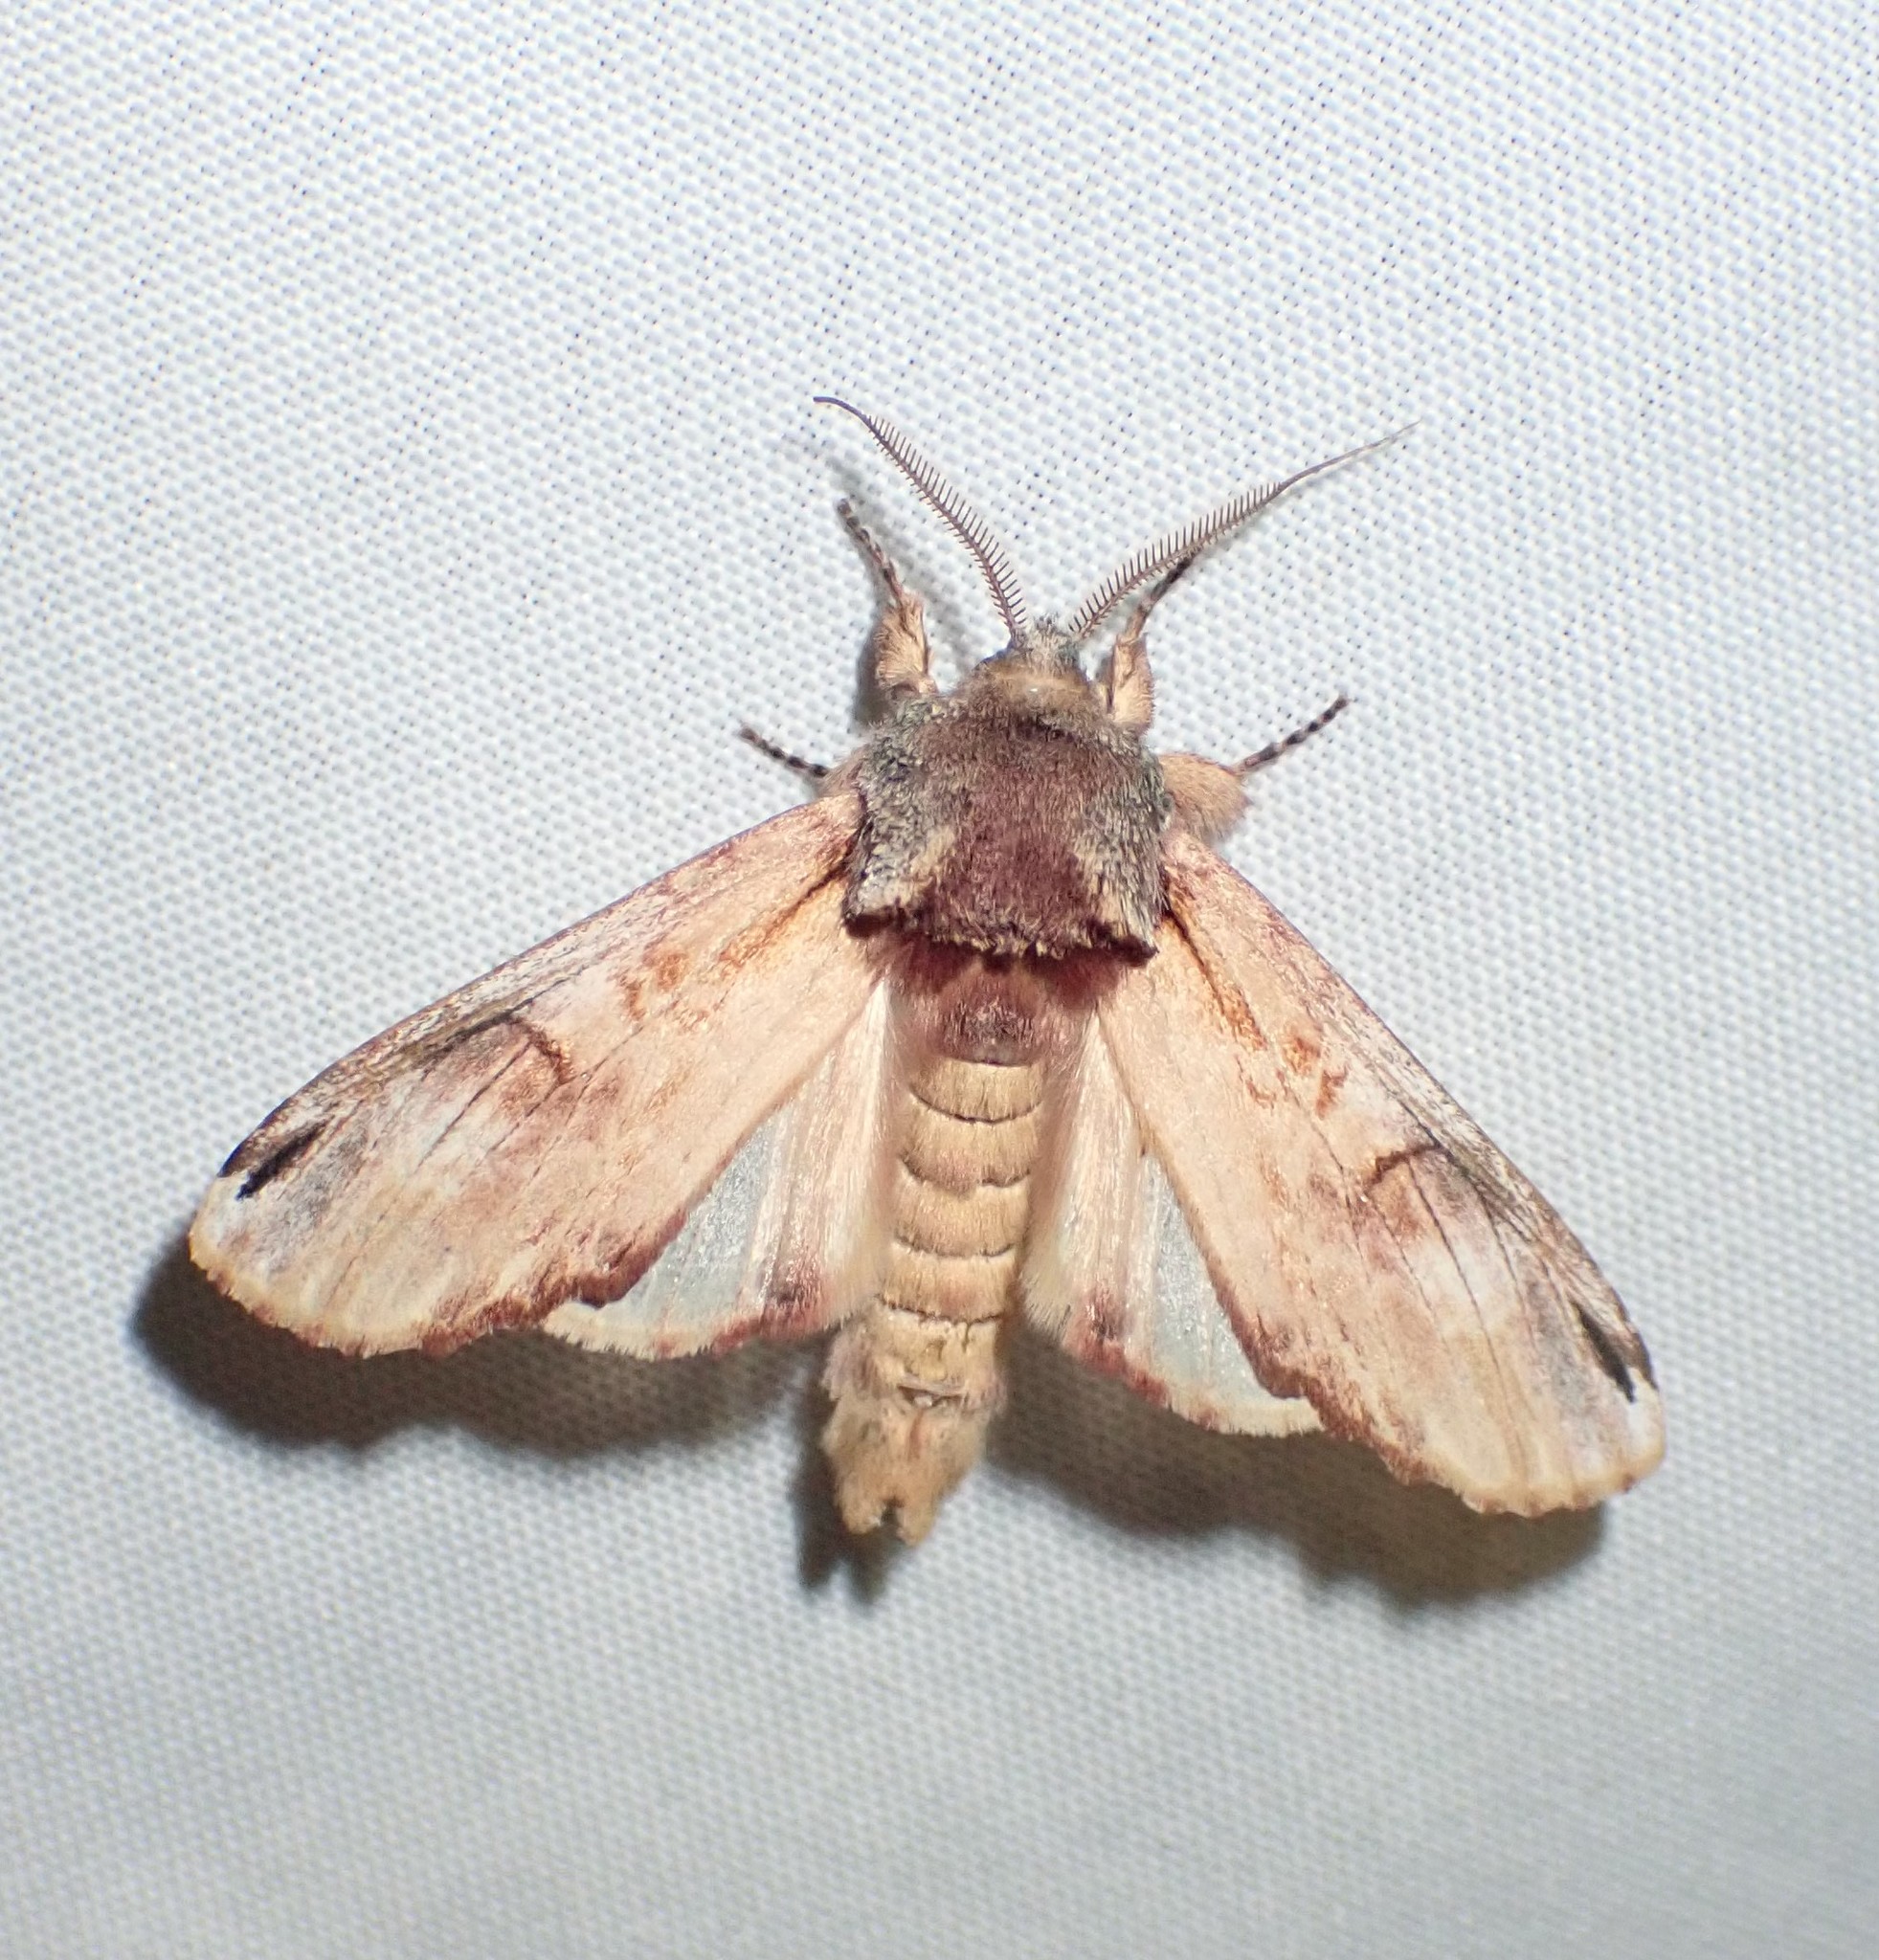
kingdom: Animalia
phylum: Arthropoda
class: Insecta
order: Lepidoptera
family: Notodontidae
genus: Schizura
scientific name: Schizura
